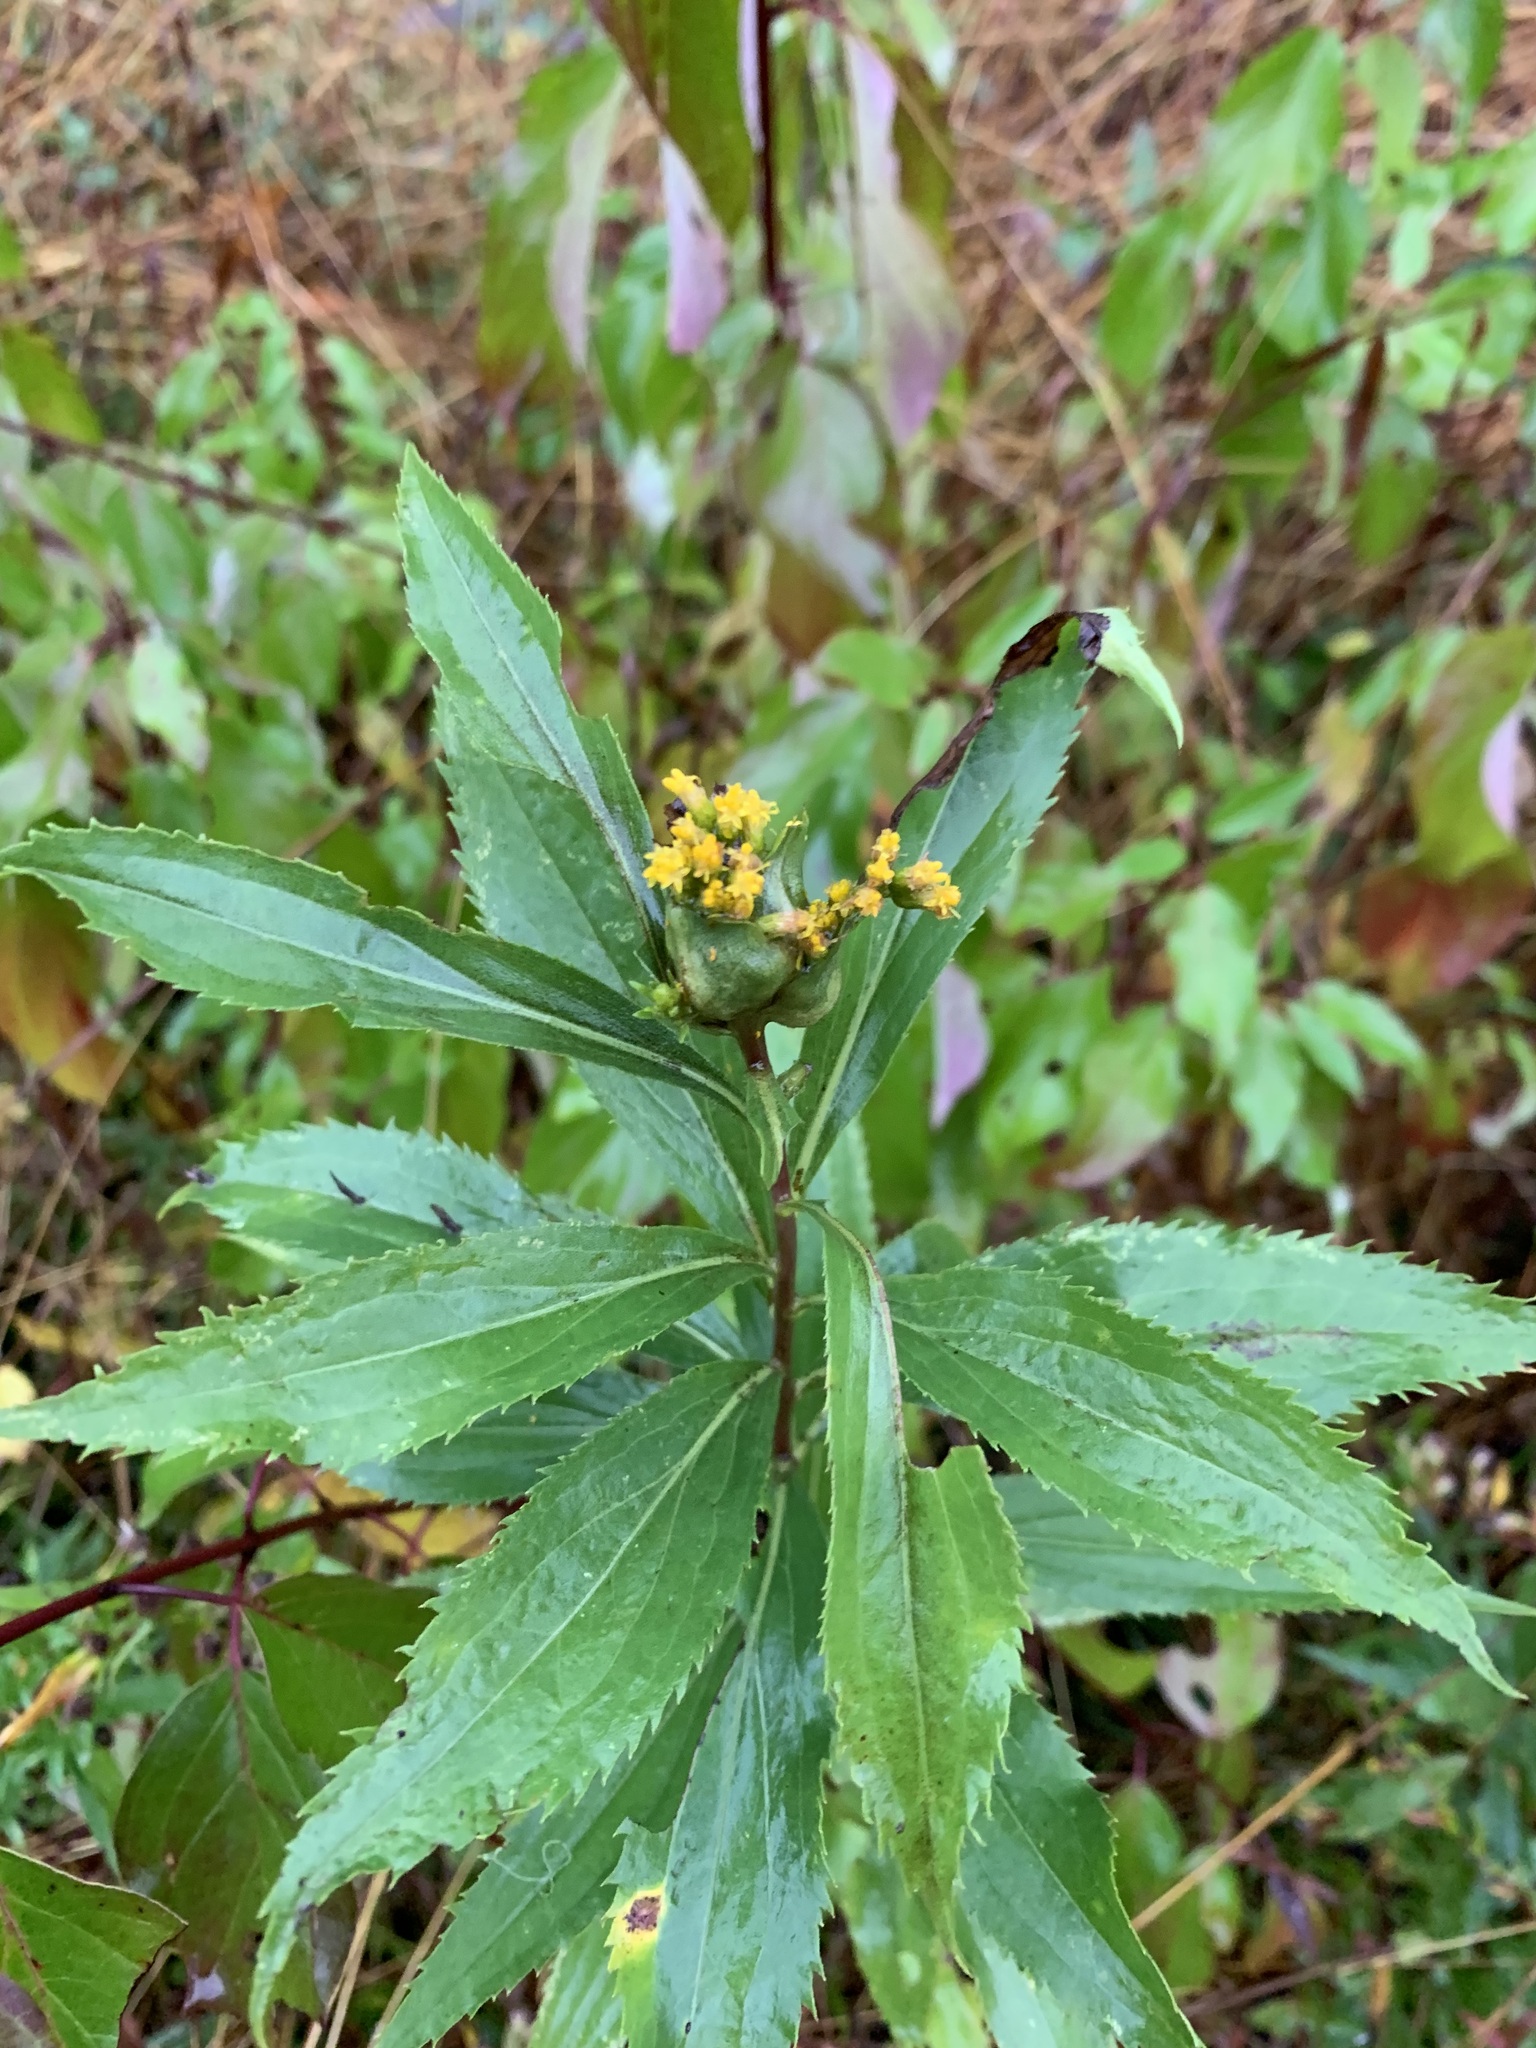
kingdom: Animalia
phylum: Arthropoda
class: Insecta
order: Diptera
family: Cecidomyiidae
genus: Dasineura
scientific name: Dasineura folliculi
